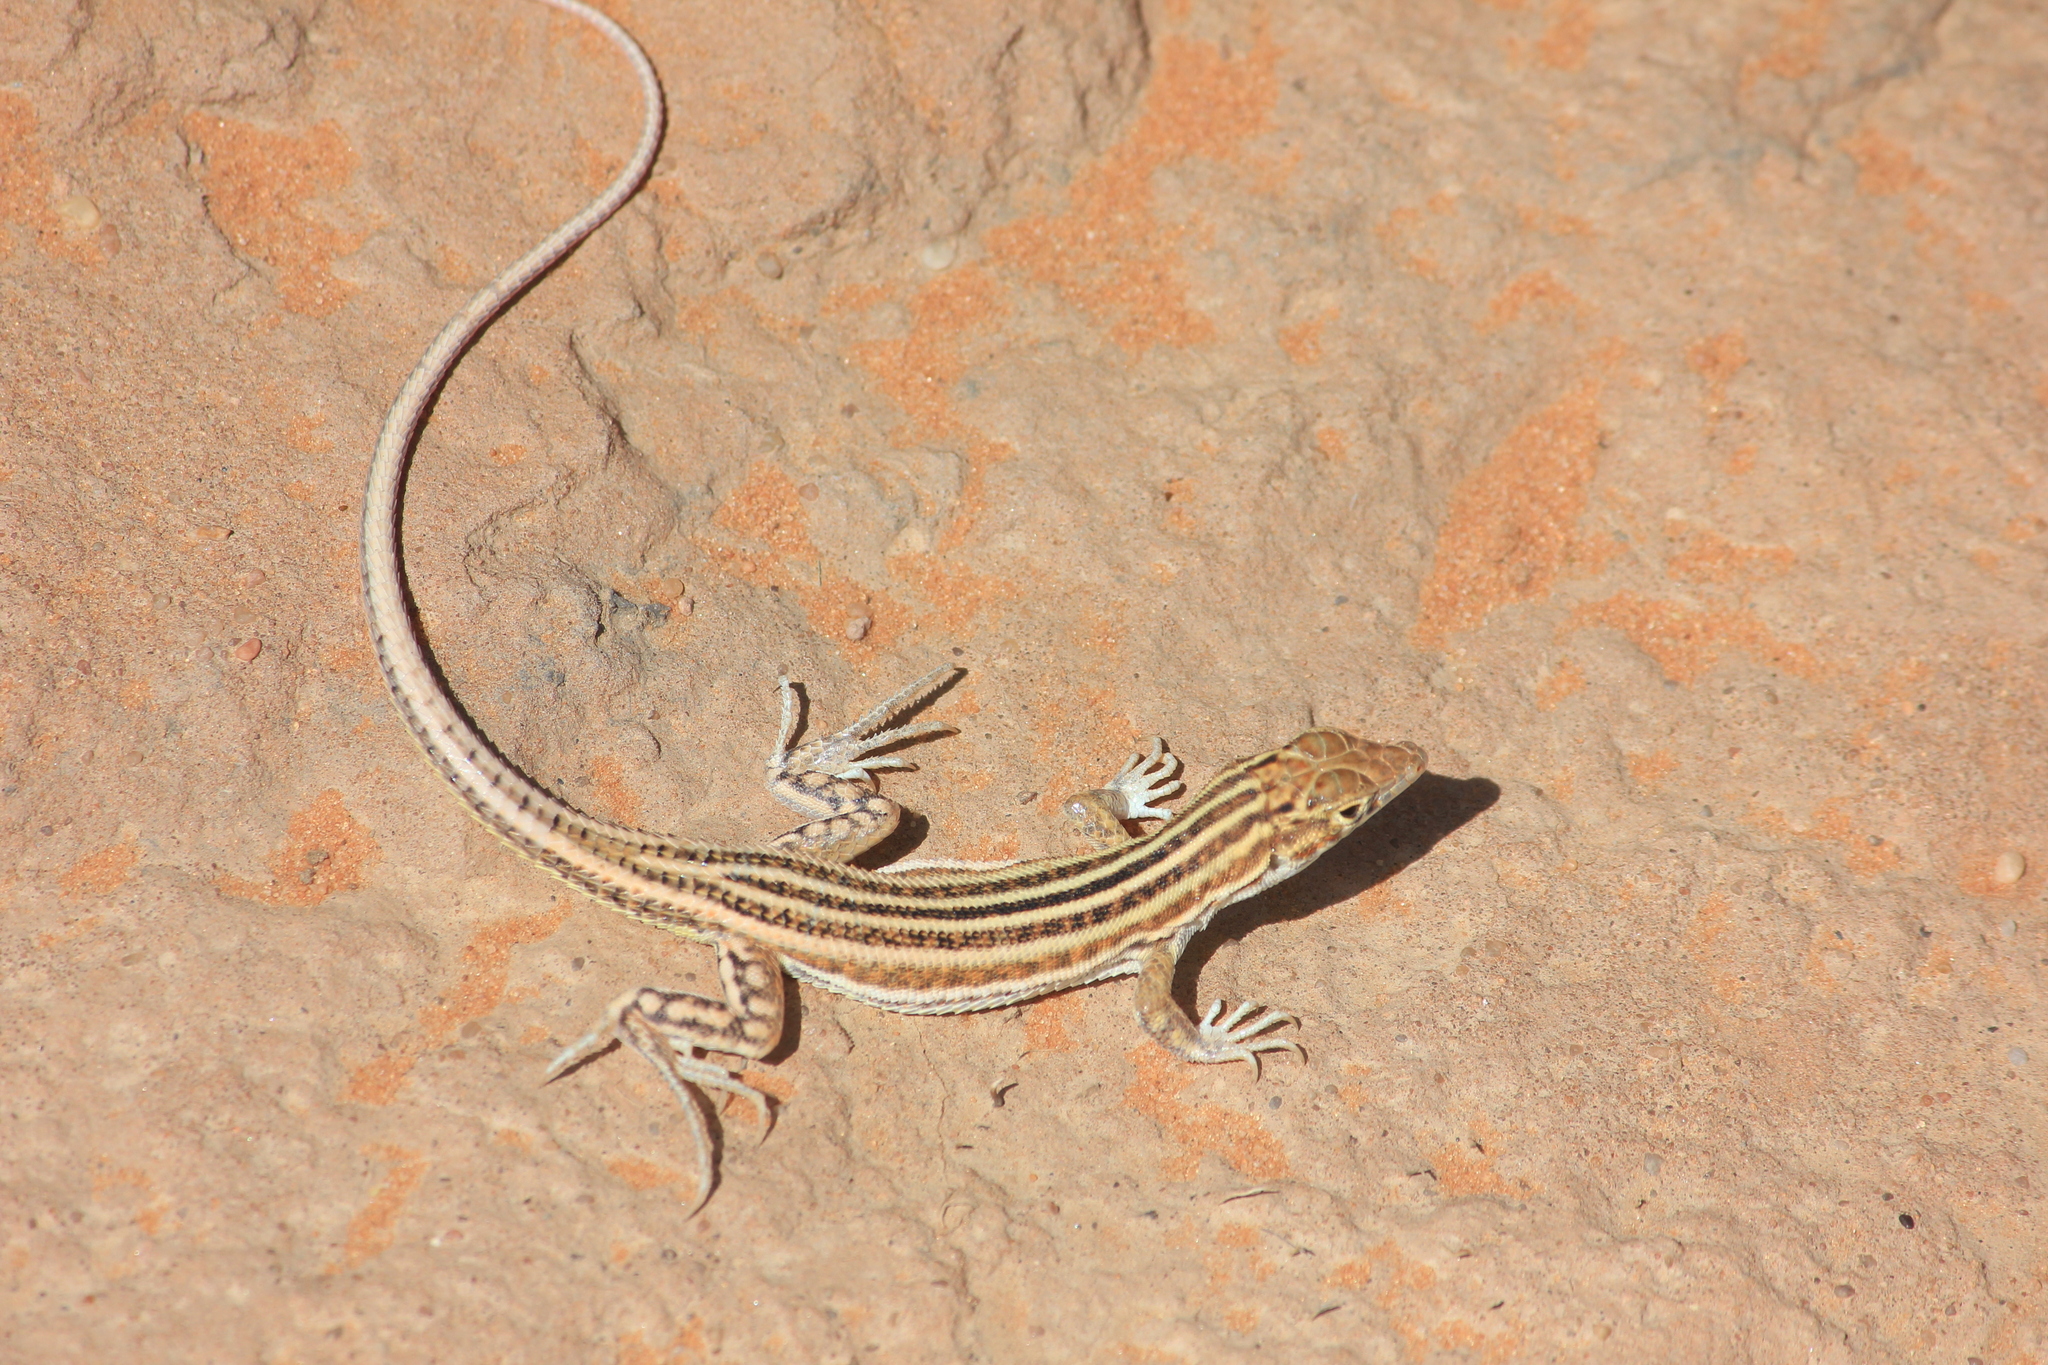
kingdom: Animalia
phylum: Chordata
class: Squamata
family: Lacertidae
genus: Acanthodactylus
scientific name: Acanthodactylus opheodurus
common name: Arnold's fringe-fingered lizard
